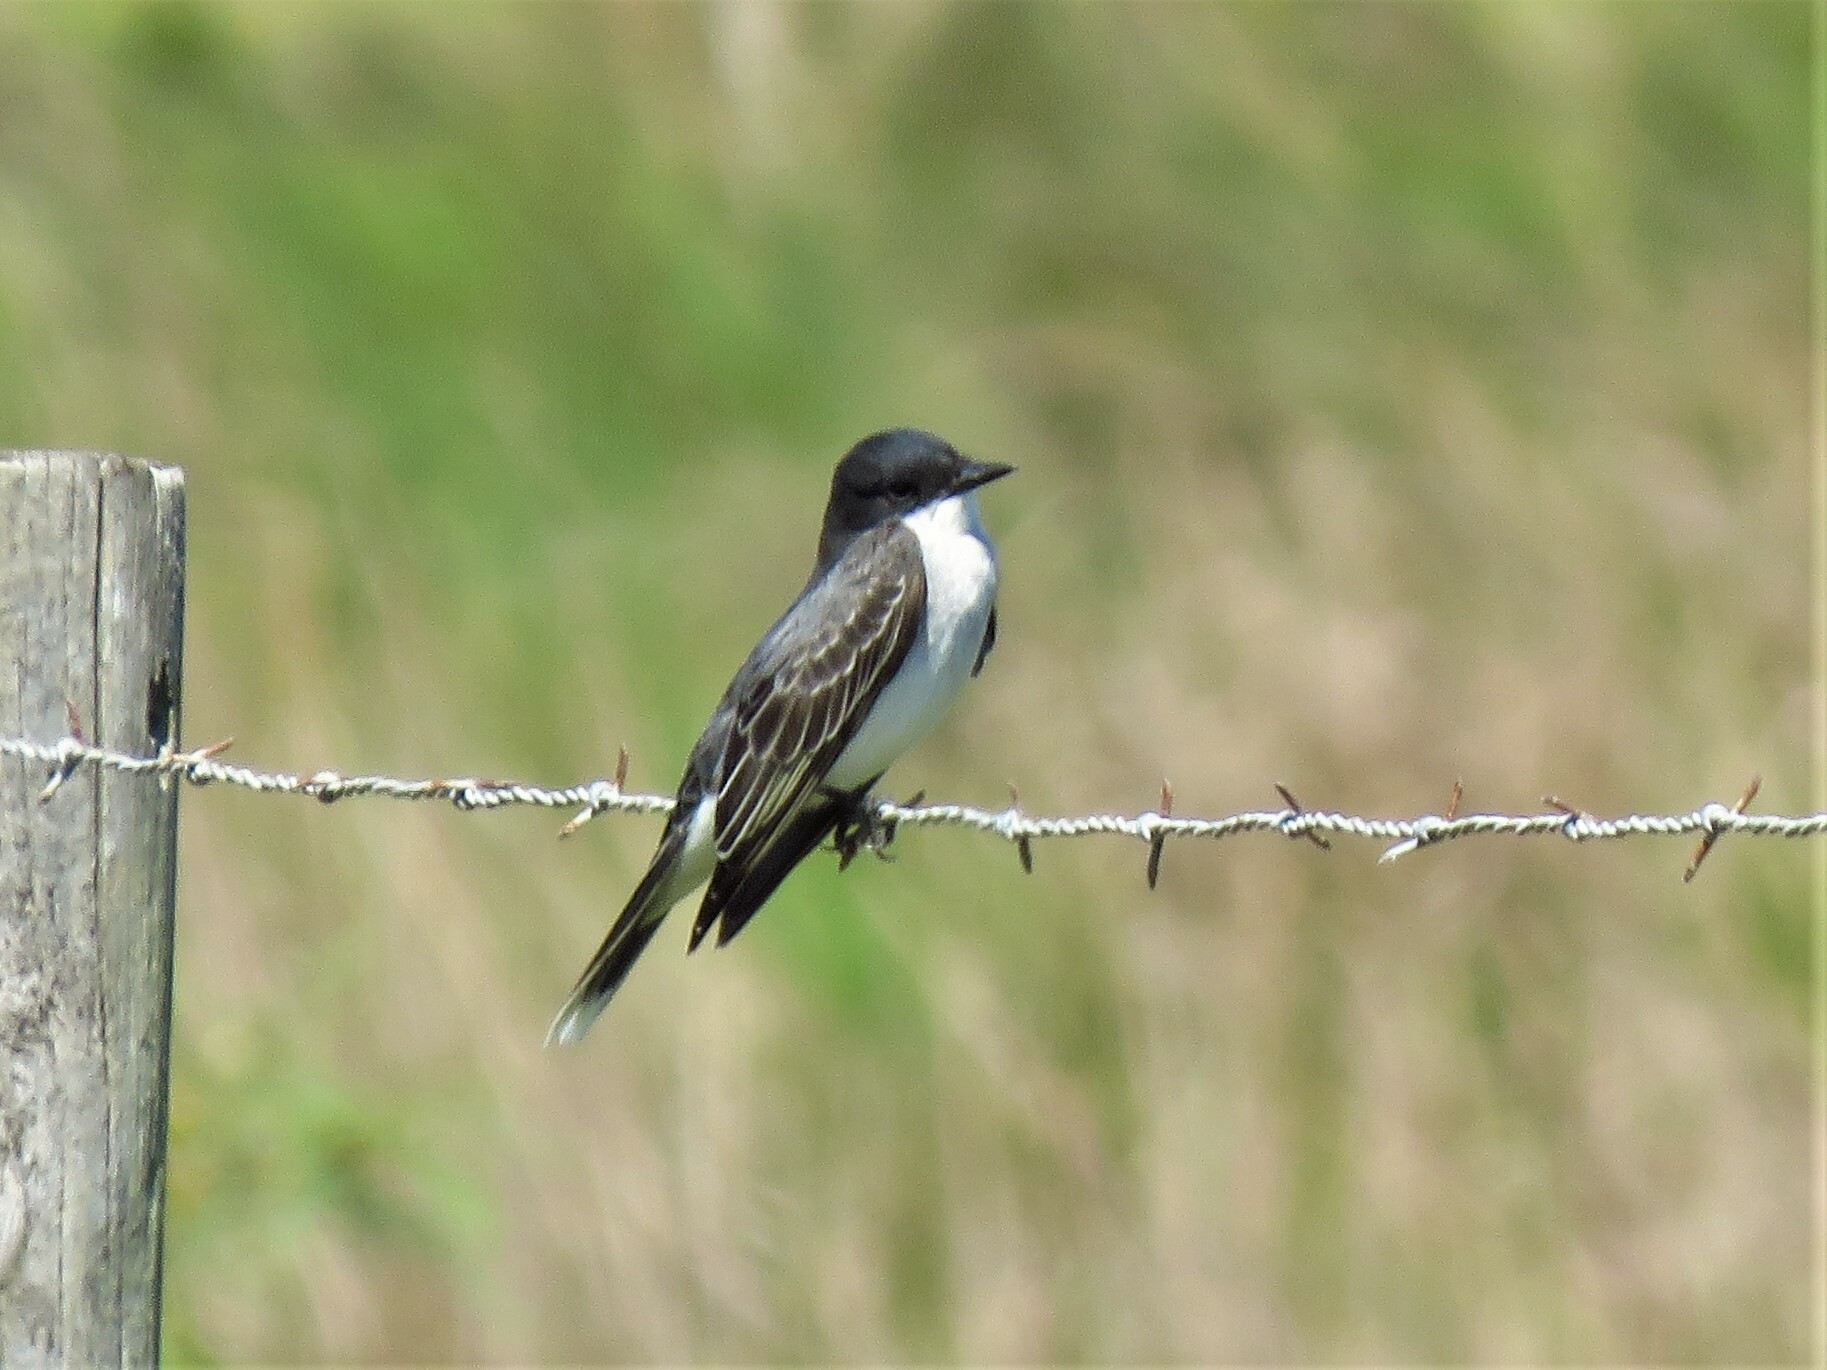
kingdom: Animalia
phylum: Chordata
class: Aves
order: Passeriformes
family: Tyrannidae
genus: Tyrannus
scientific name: Tyrannus tyrannus
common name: Eastern kingbird
